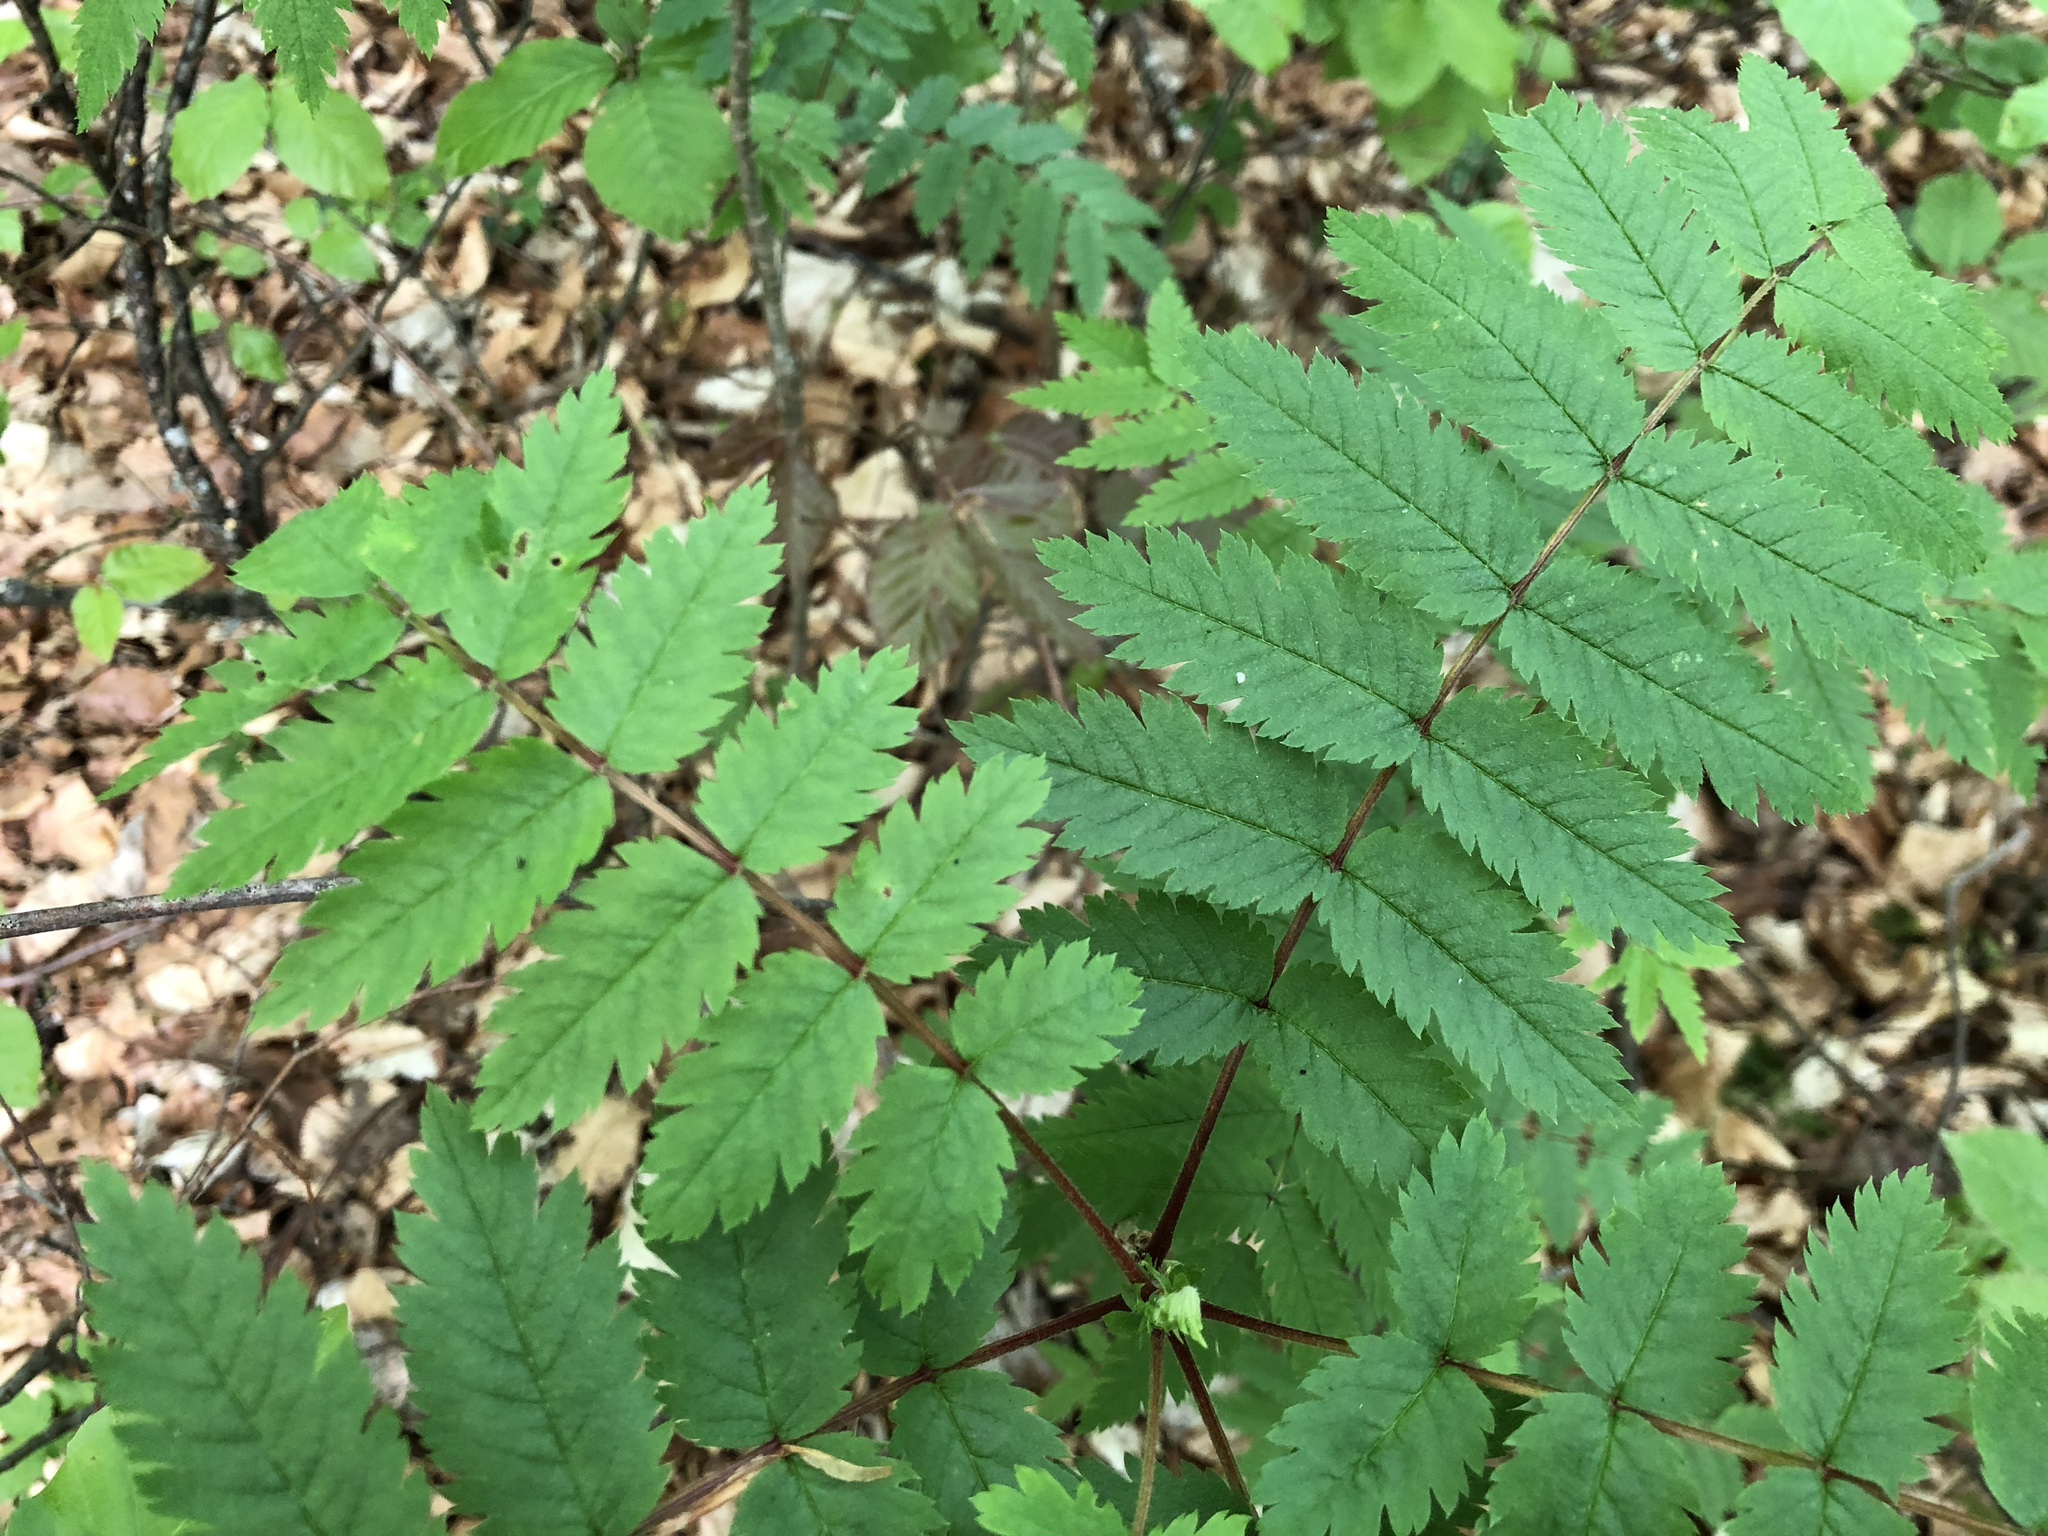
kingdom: Plantae
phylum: Tracheophyta
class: Magnoliopsida
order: Rosales
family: Rosaceae
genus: Sorbus
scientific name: Sorbus aucuparia
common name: Rowan
